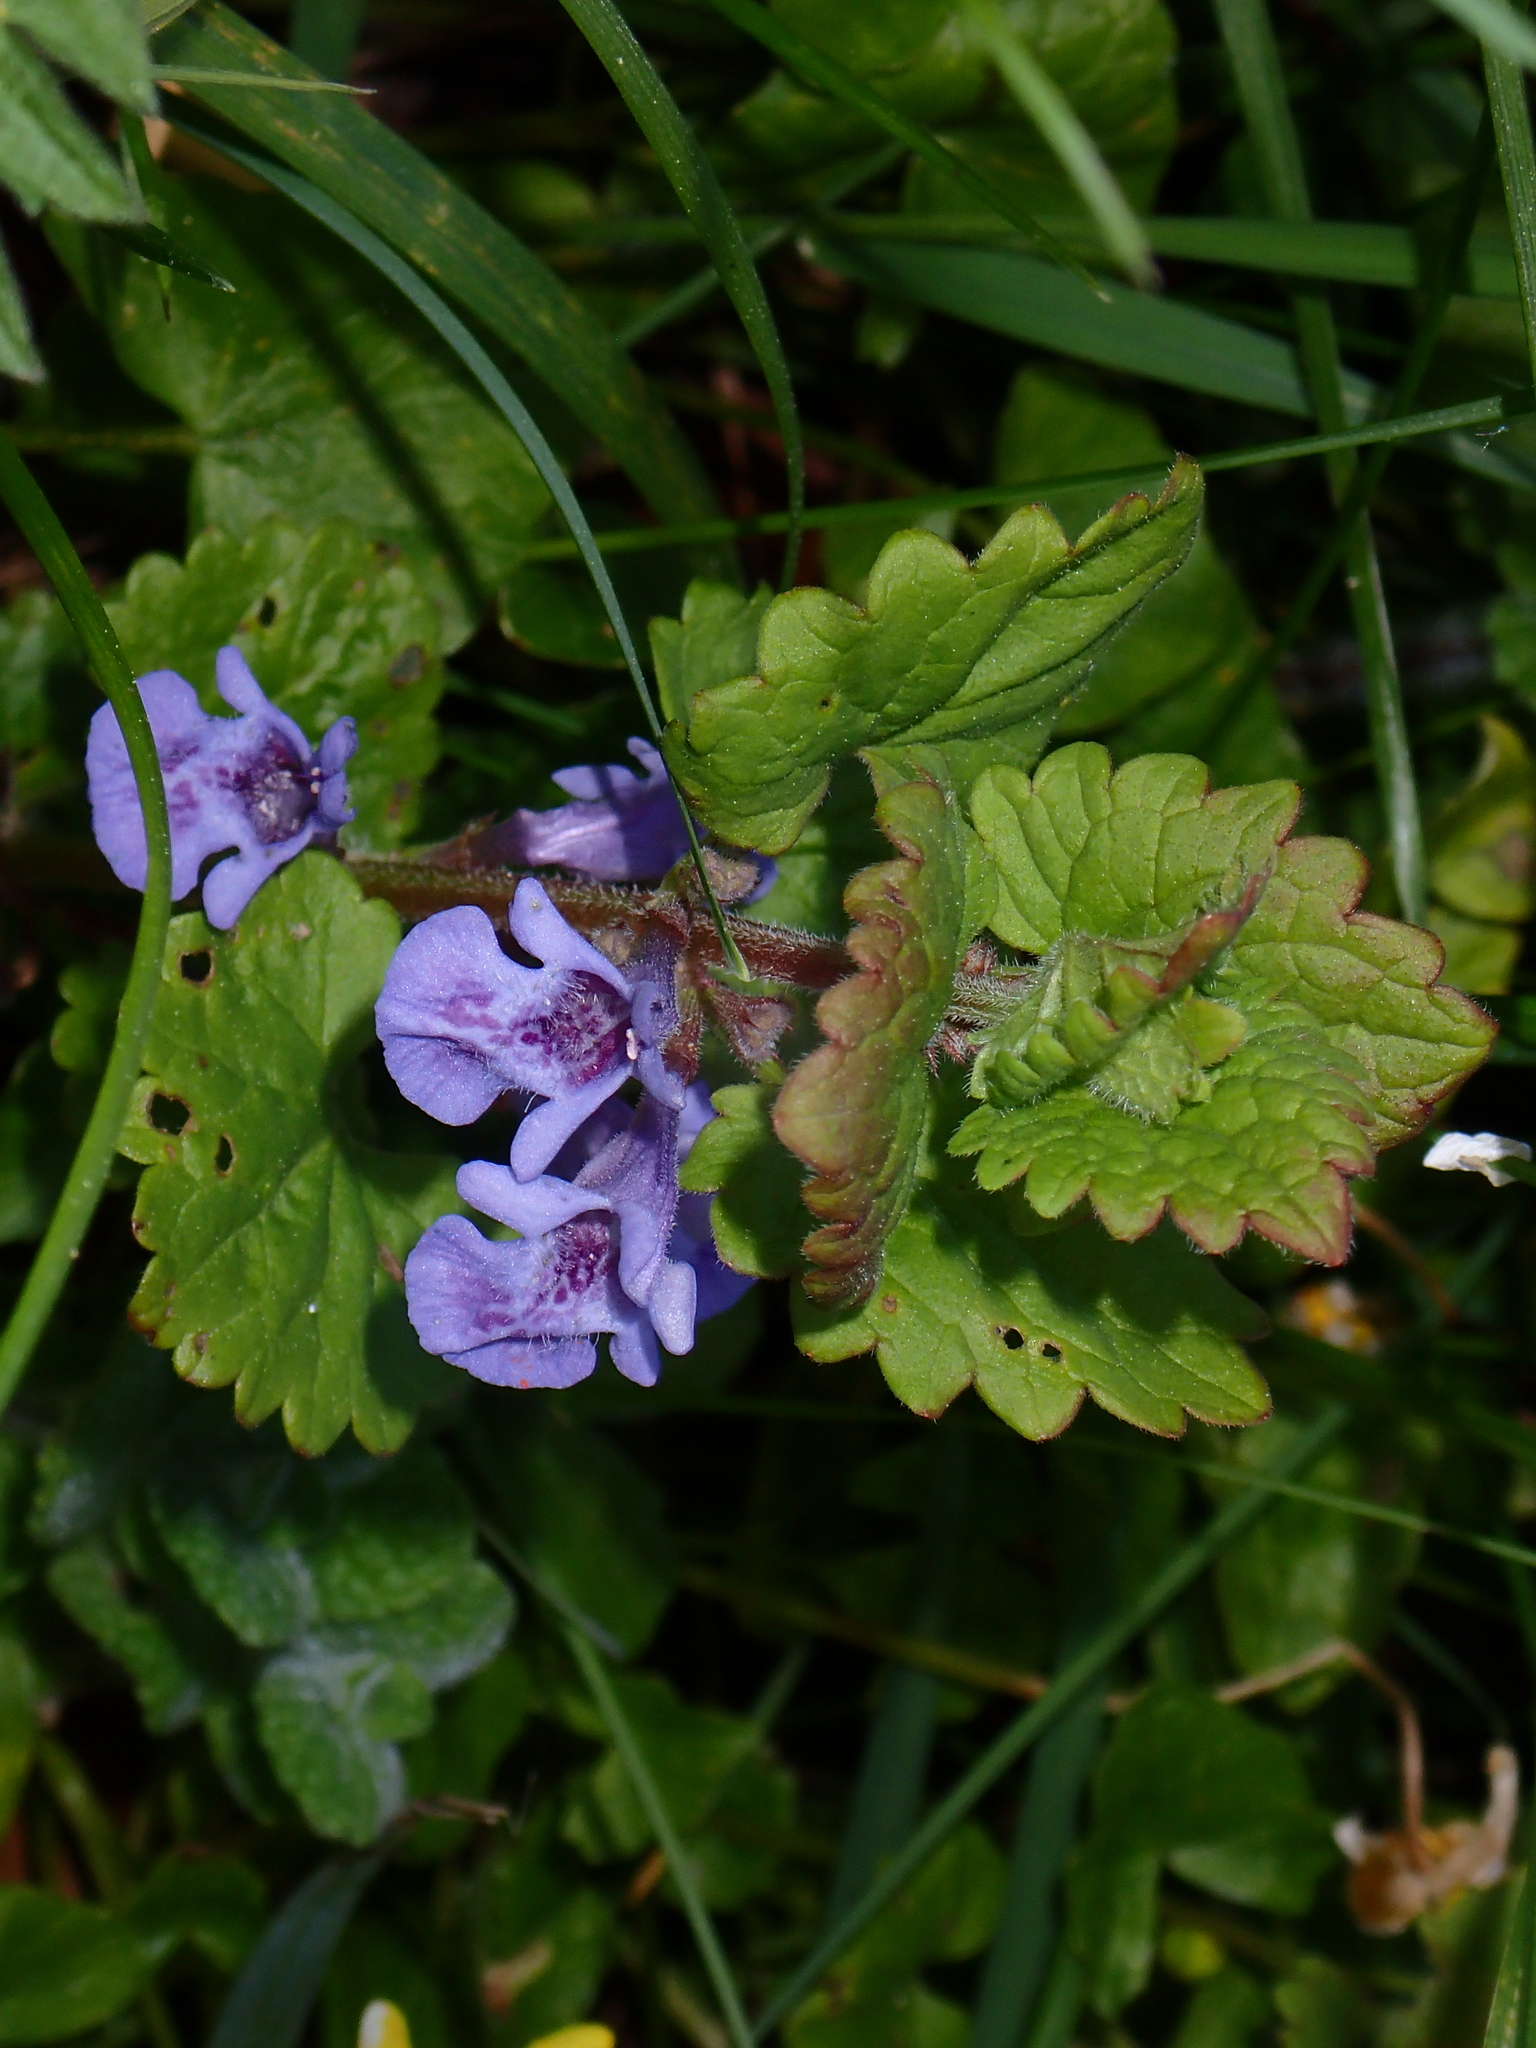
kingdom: Plantae
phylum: Tracheophyta
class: Magnoliopsida
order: Lamiales
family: Lamiaceae
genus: Glechoma
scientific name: Glechoma hederacea
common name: Ground ivy
